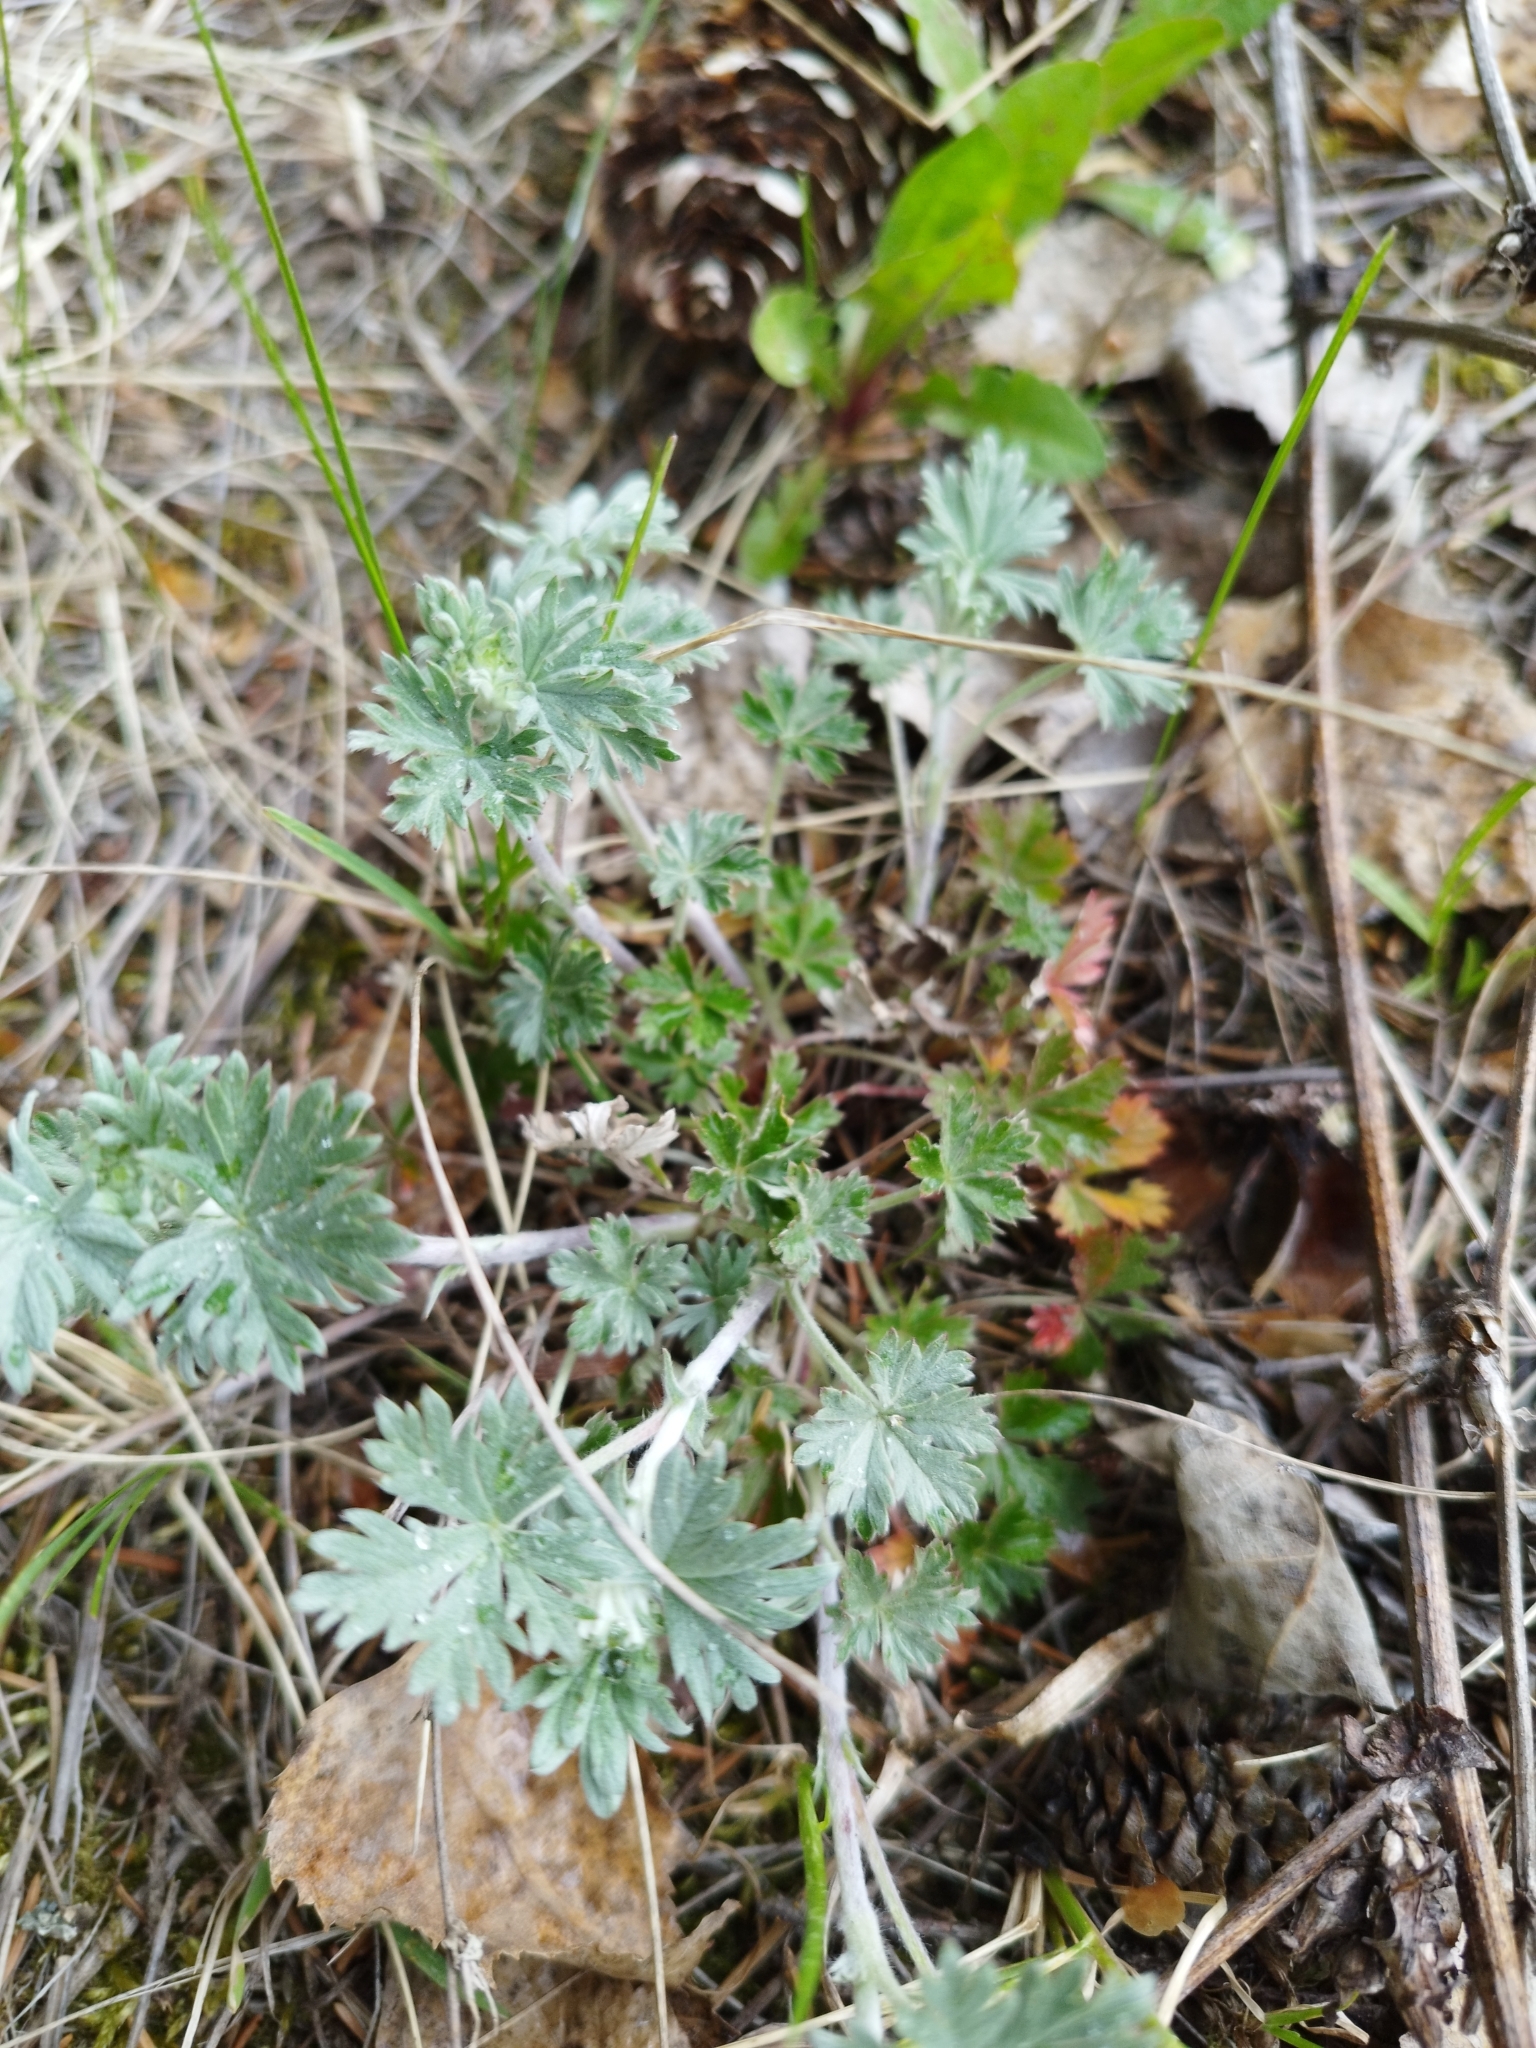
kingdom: Plantae
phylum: Tracheophyta
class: Magnoliopsida
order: Rosales
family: Rosaceae
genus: Potentilla
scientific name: Potentilla argentea
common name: Hoary cinquefoil
